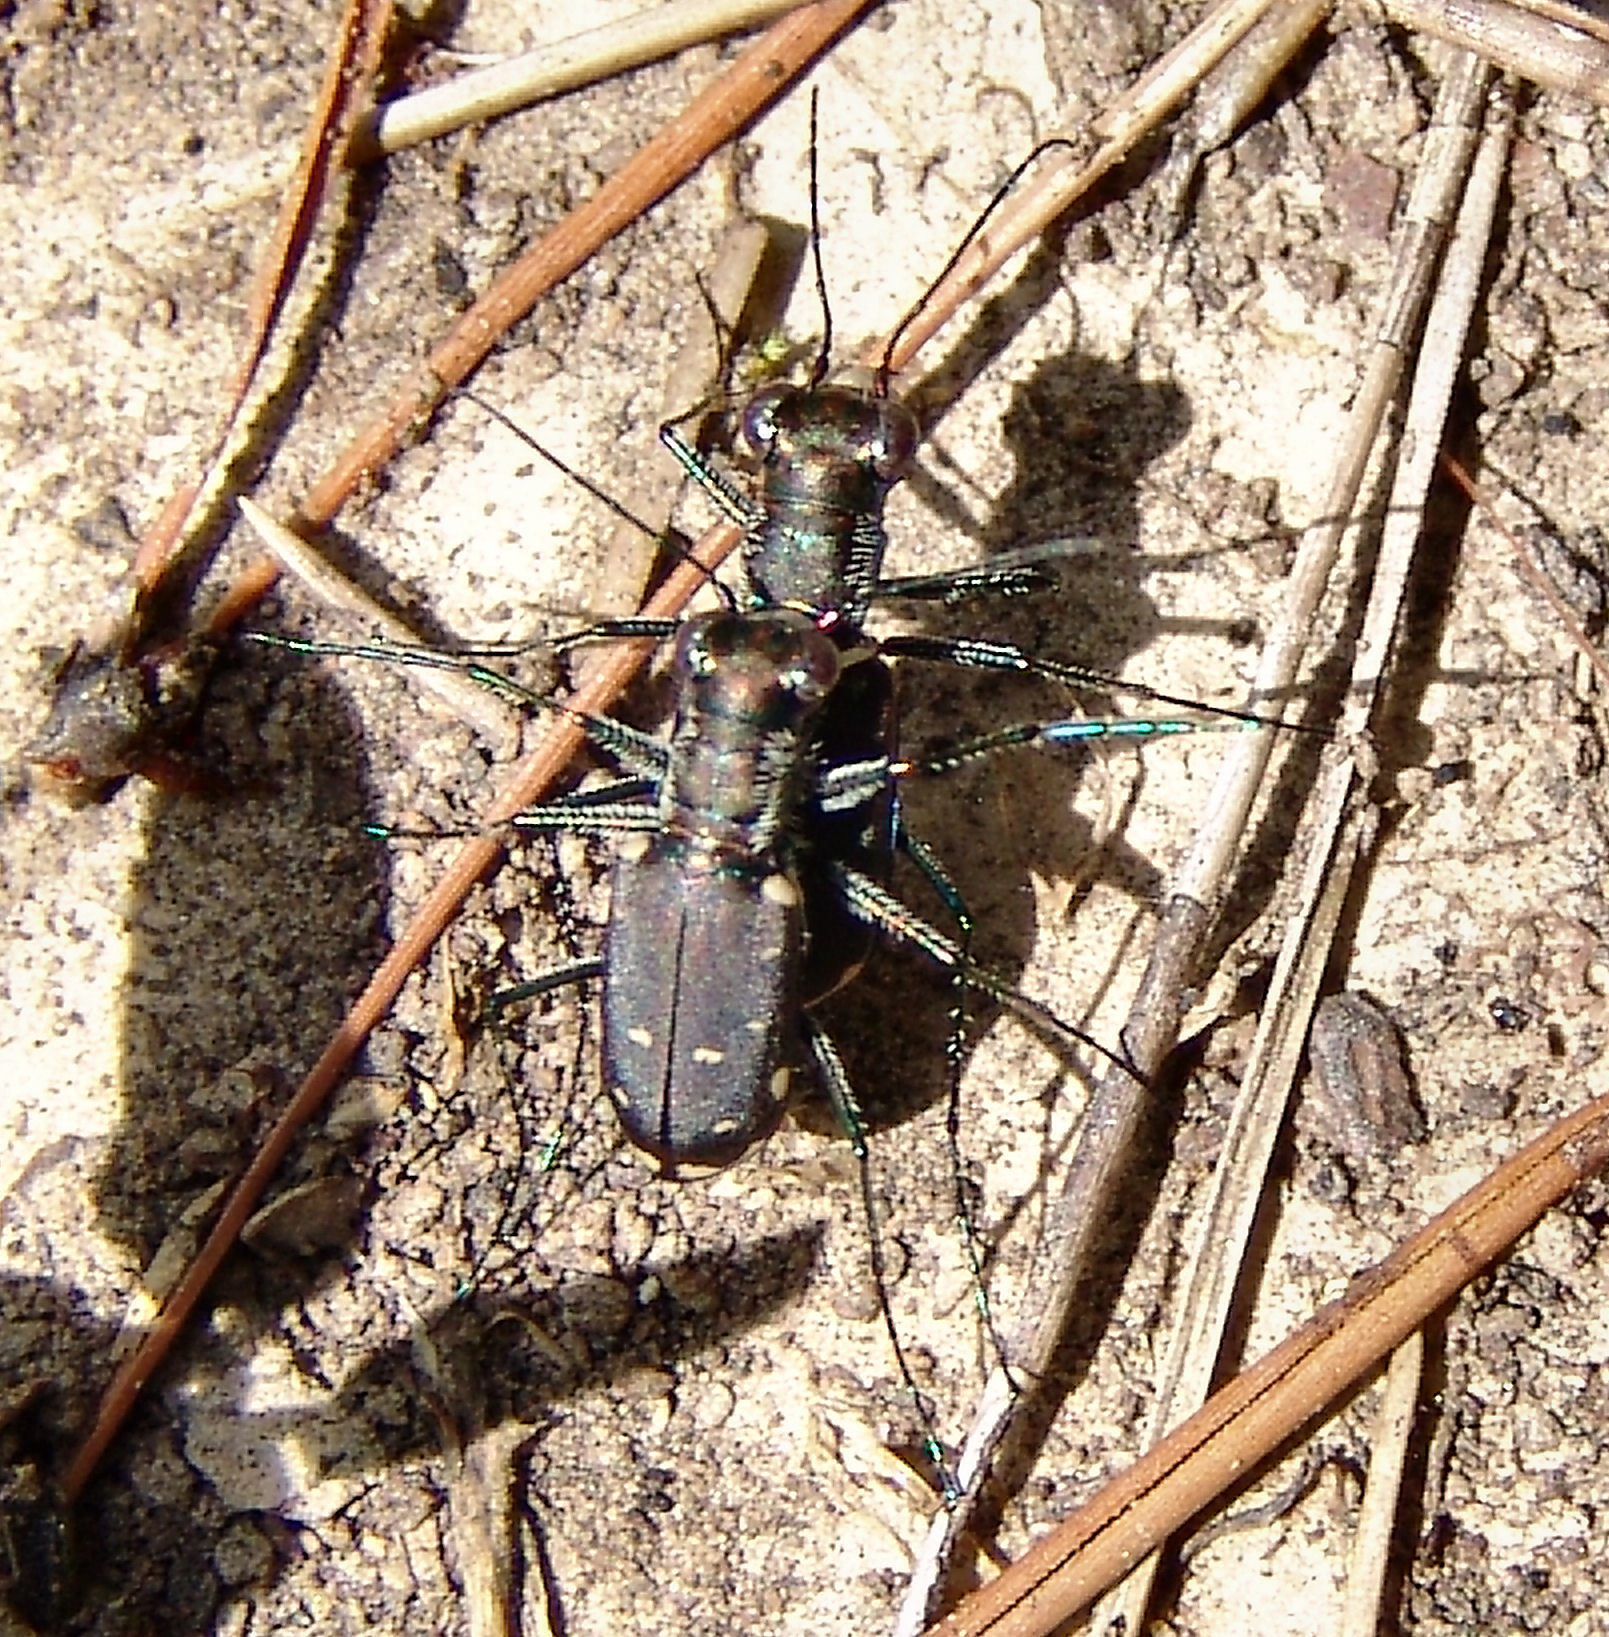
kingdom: Animalia
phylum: Arthropoda
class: Insecta
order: Coleoptera
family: Carabidae
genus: Cicindela
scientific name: Cicindela rufiventris
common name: Eastern red-bellied tiger beetle
